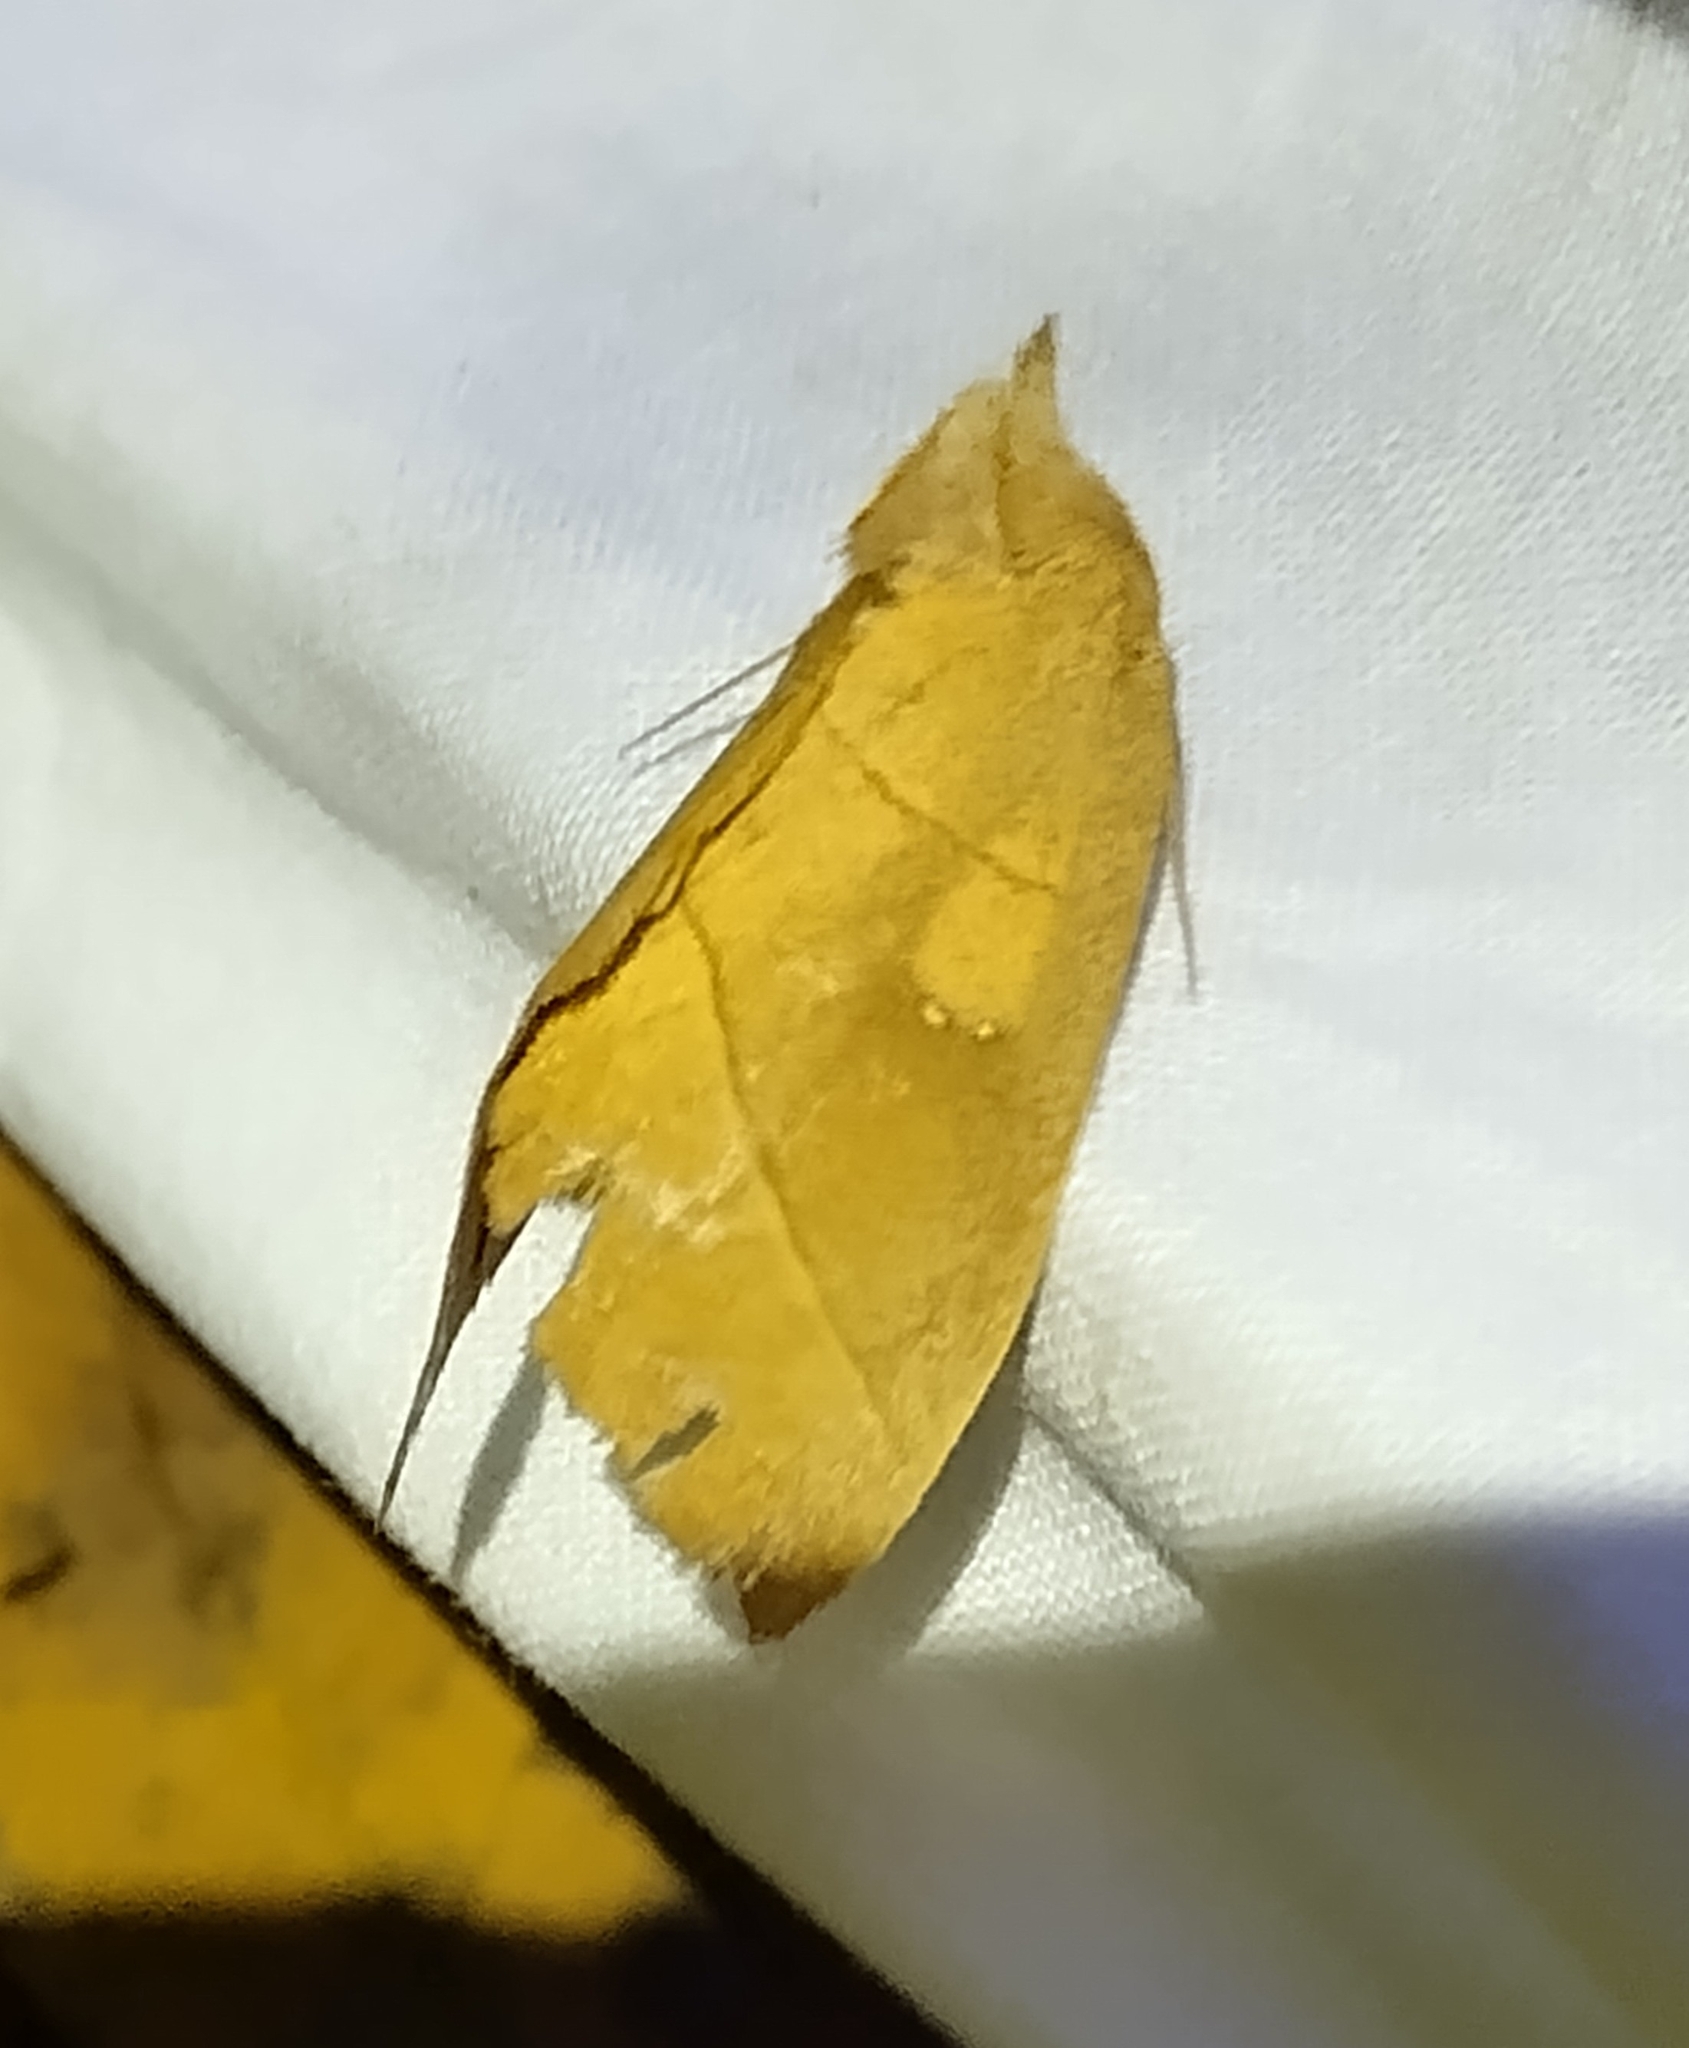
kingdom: Animalia
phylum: Arthropoda
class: Insecta
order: Lepidoptera
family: Notodontidae
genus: Nadata
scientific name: Nadata gibbosa
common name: White-dotted prominent
